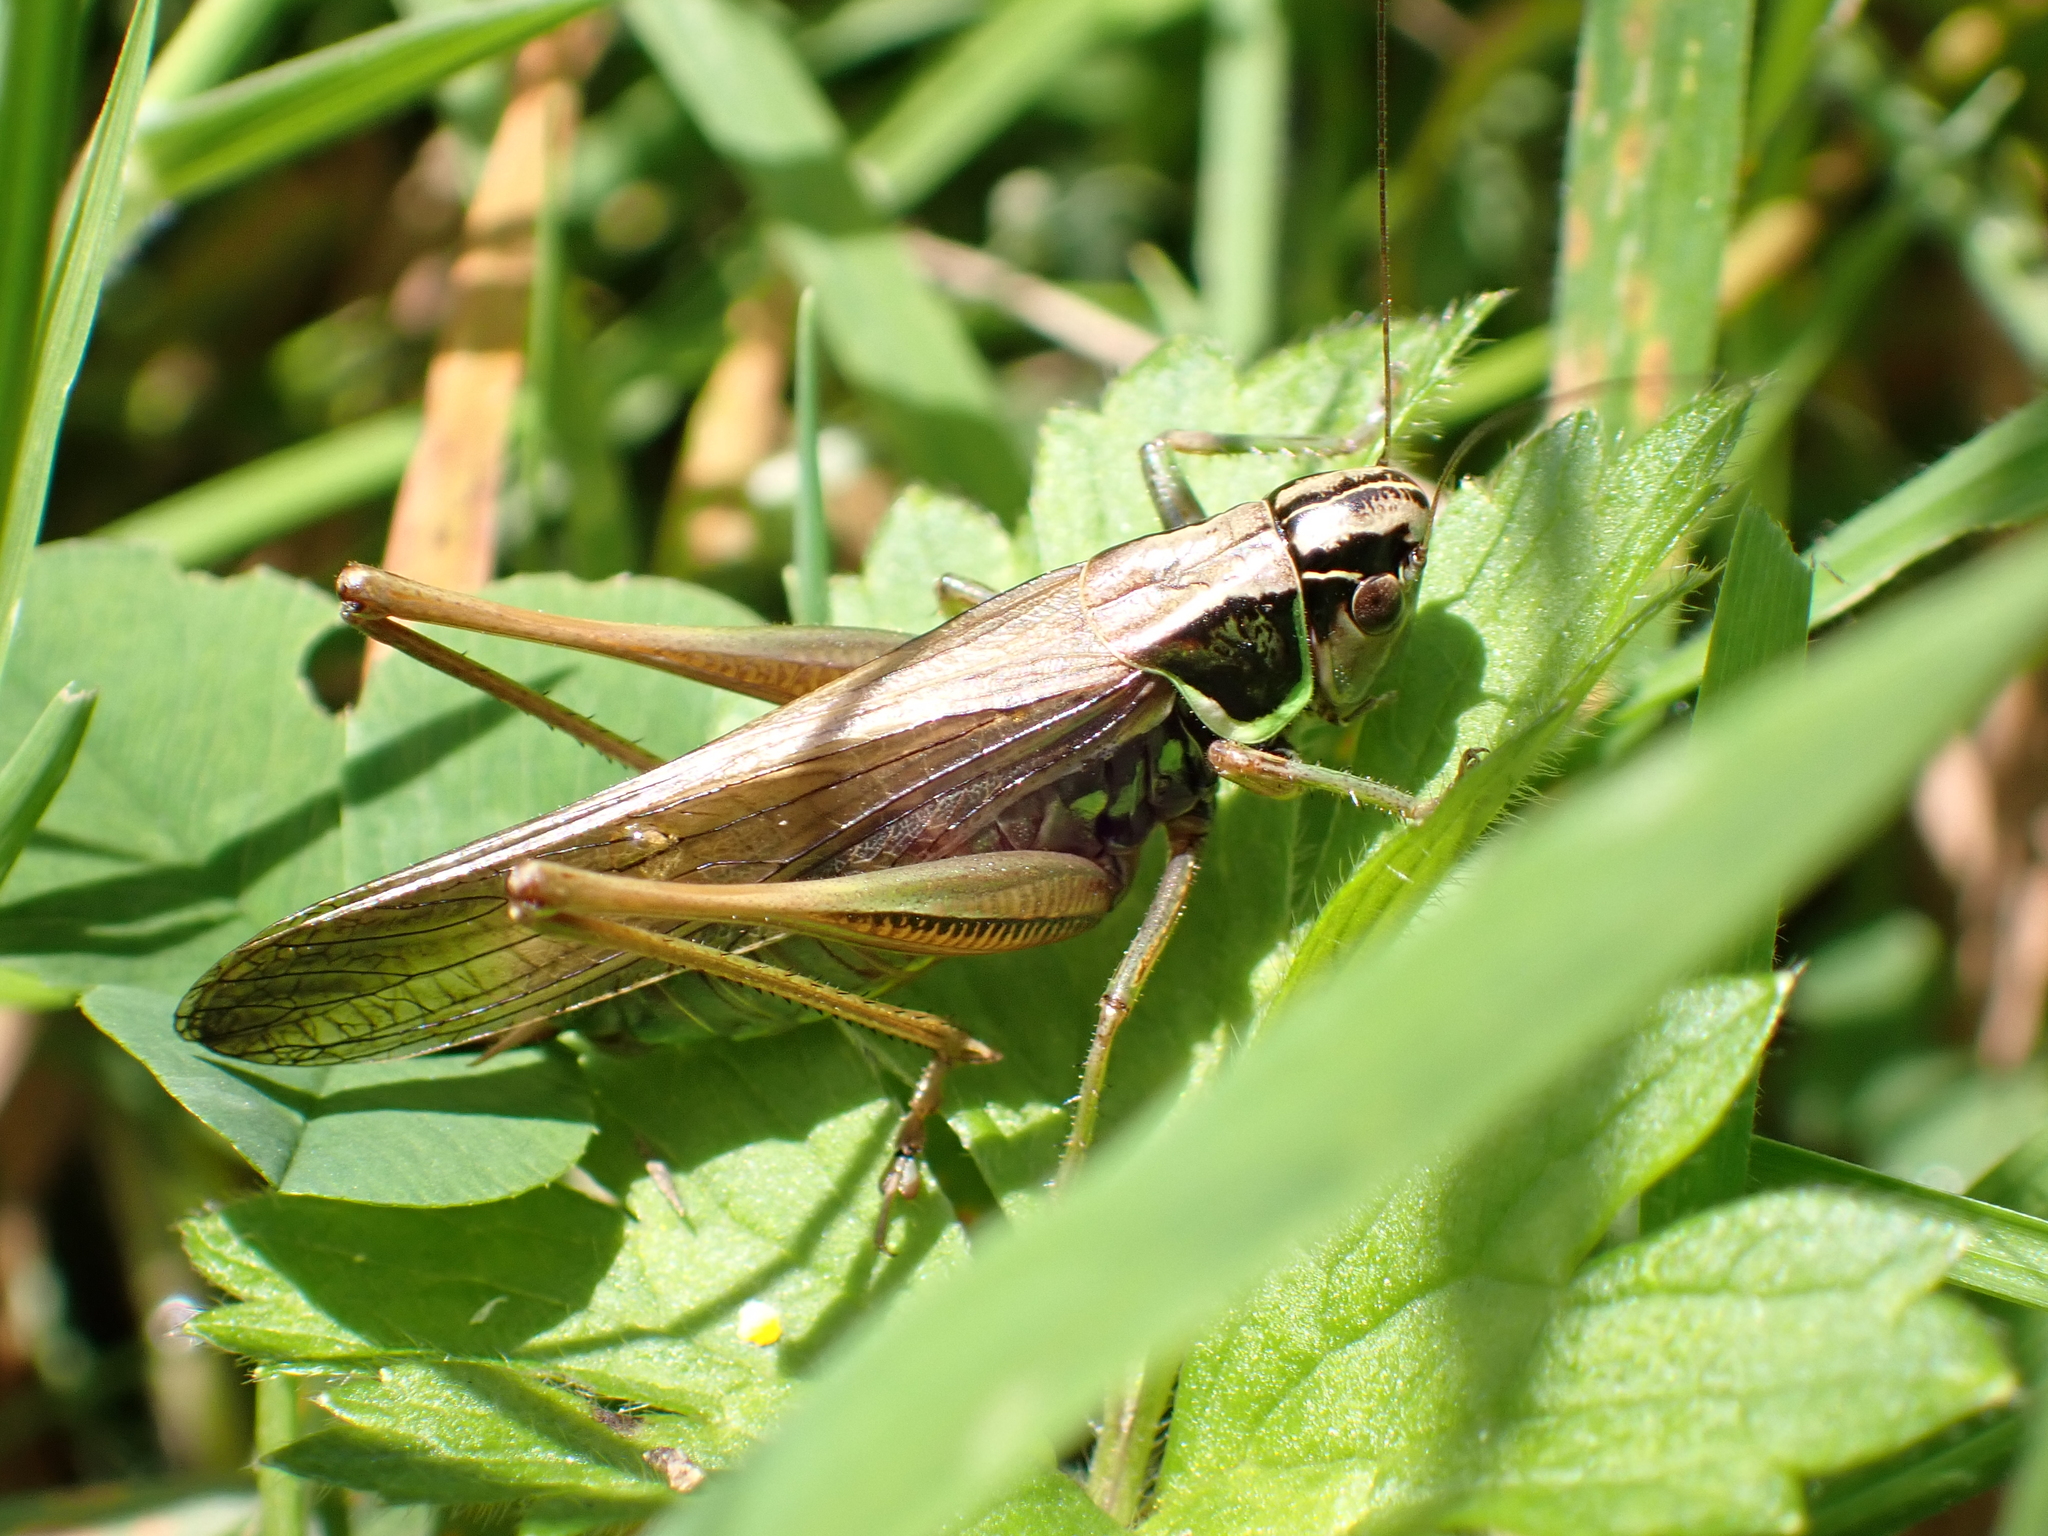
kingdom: Animalia
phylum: Arthropoda
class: Insecta
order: Orthoptera
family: Tettigoniidae
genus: Roeseliana
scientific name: Roeseliana roeselii
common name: Roesel's bush cricket
